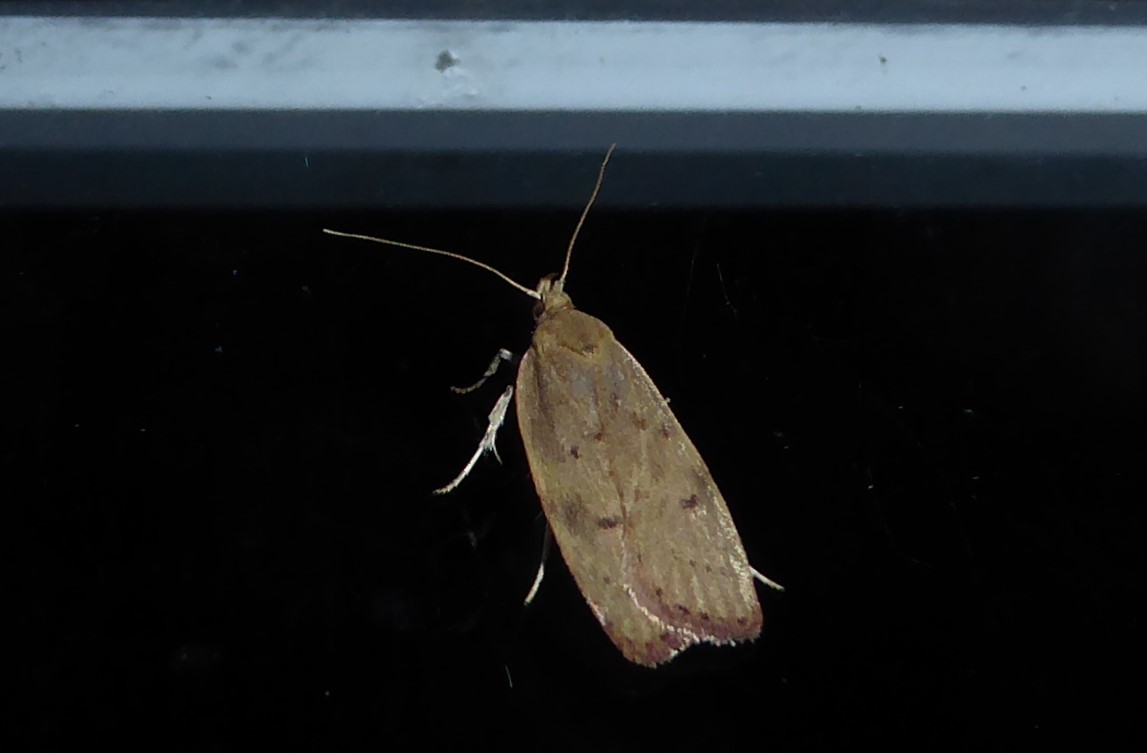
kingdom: Animalia
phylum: Arthropoda
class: Insecta
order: Lepidoptera
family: Depressariidae
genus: Phaeosaces
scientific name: Phaeosaces coarctatella
